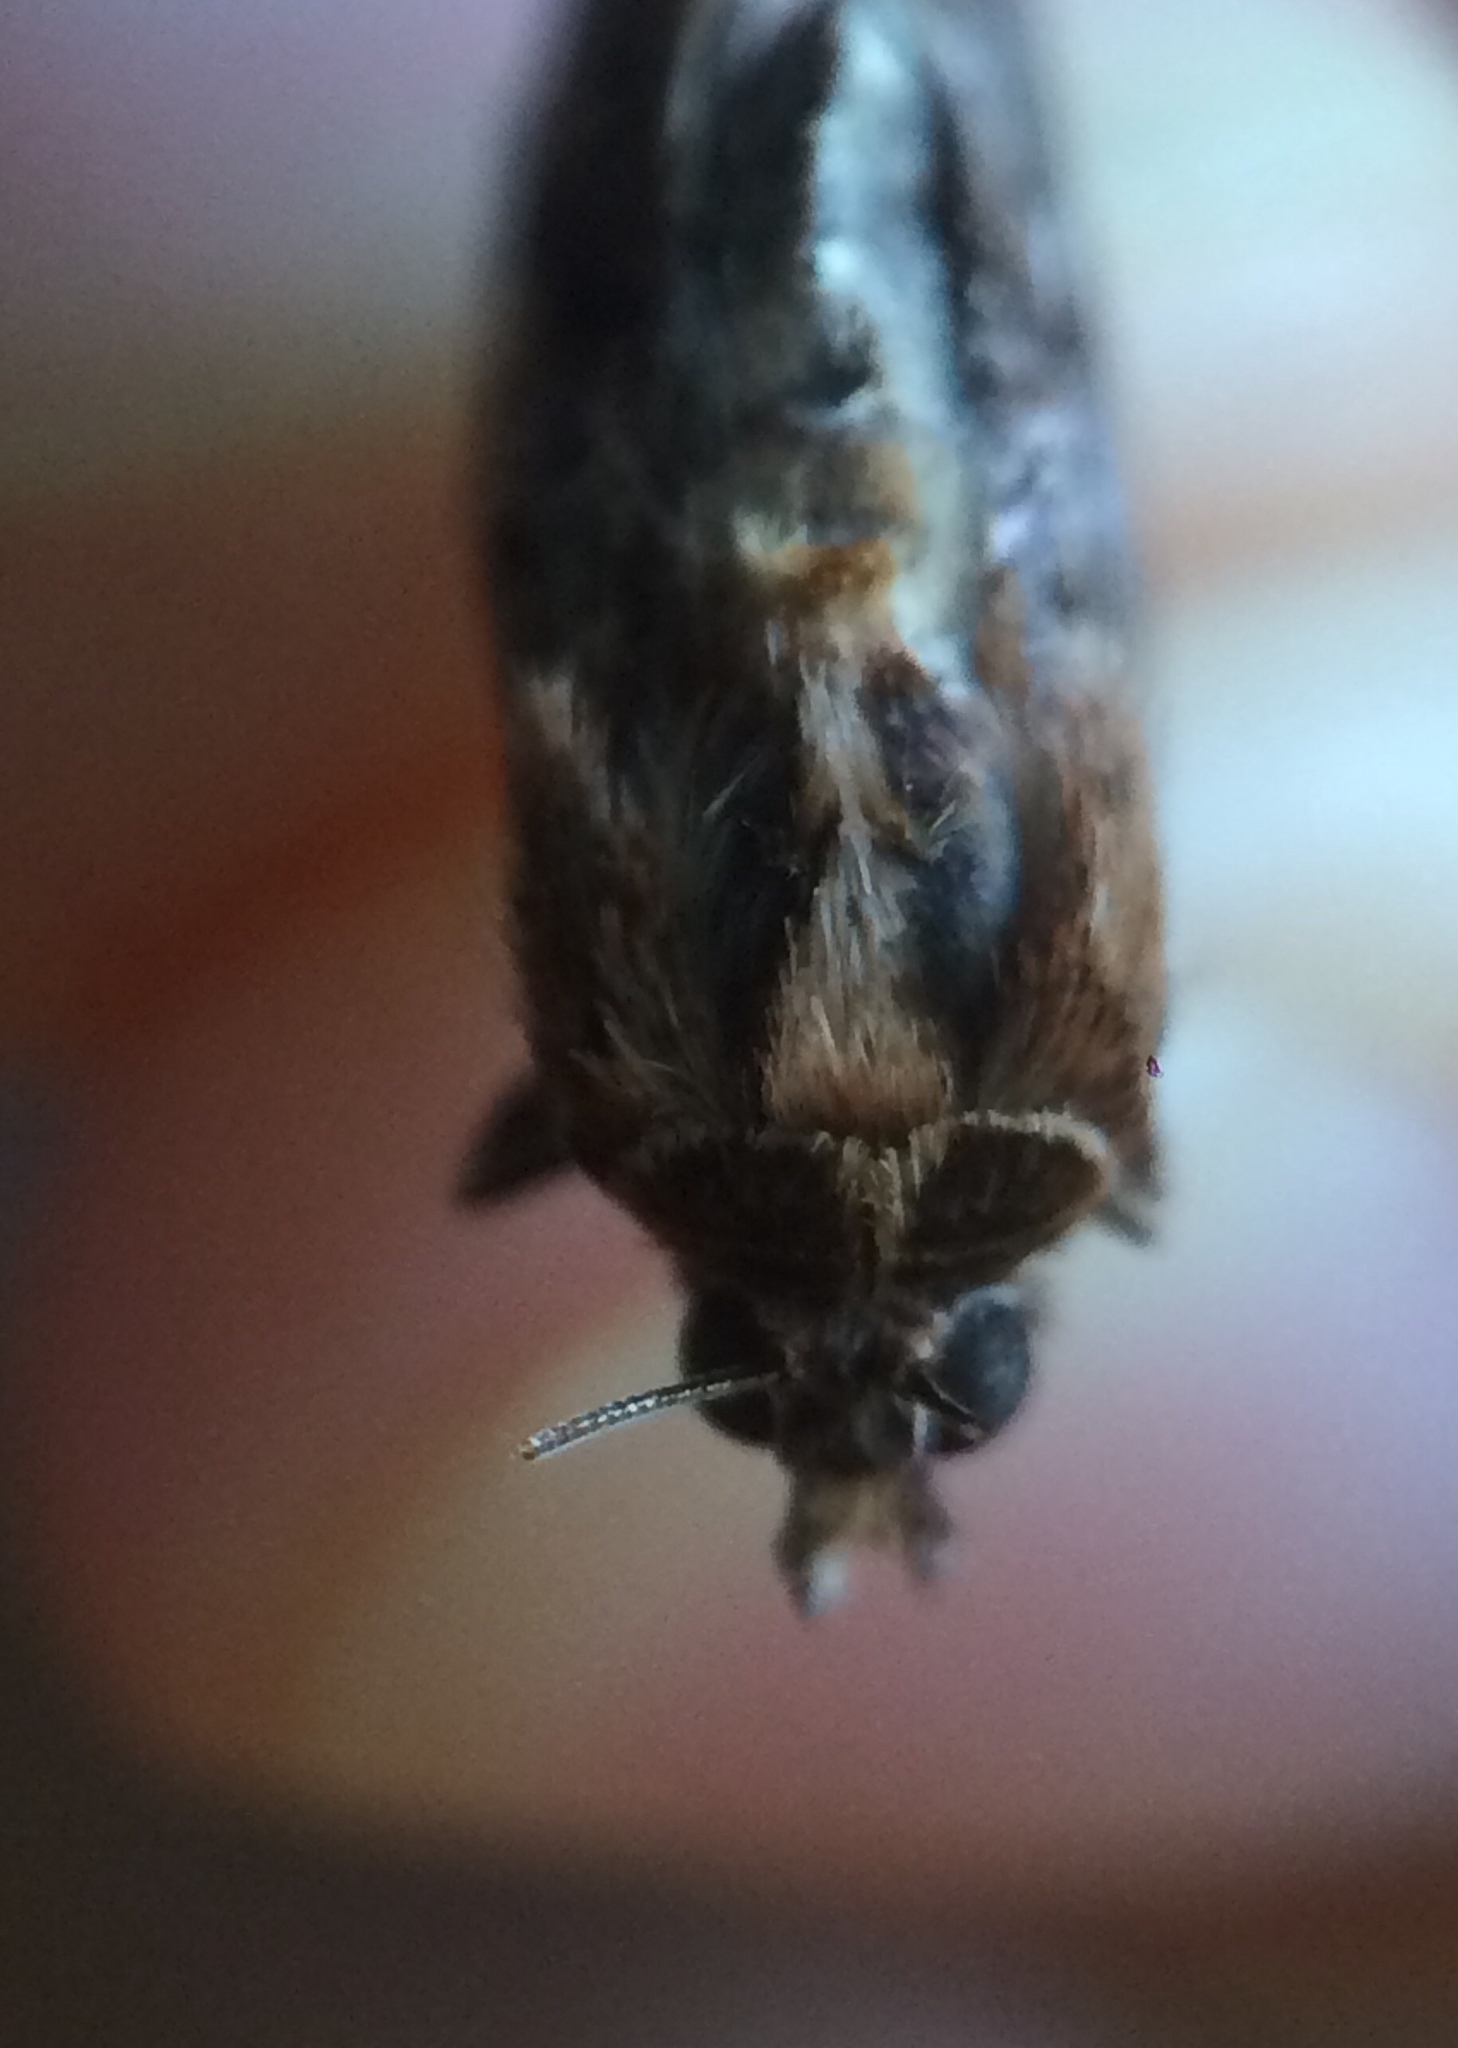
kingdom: Animalia
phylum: Arthropoda
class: Insecta
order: Lepidoptera
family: Noctuidae
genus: Callopistria
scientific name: Callopistria floridensis
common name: Florida fern moth
